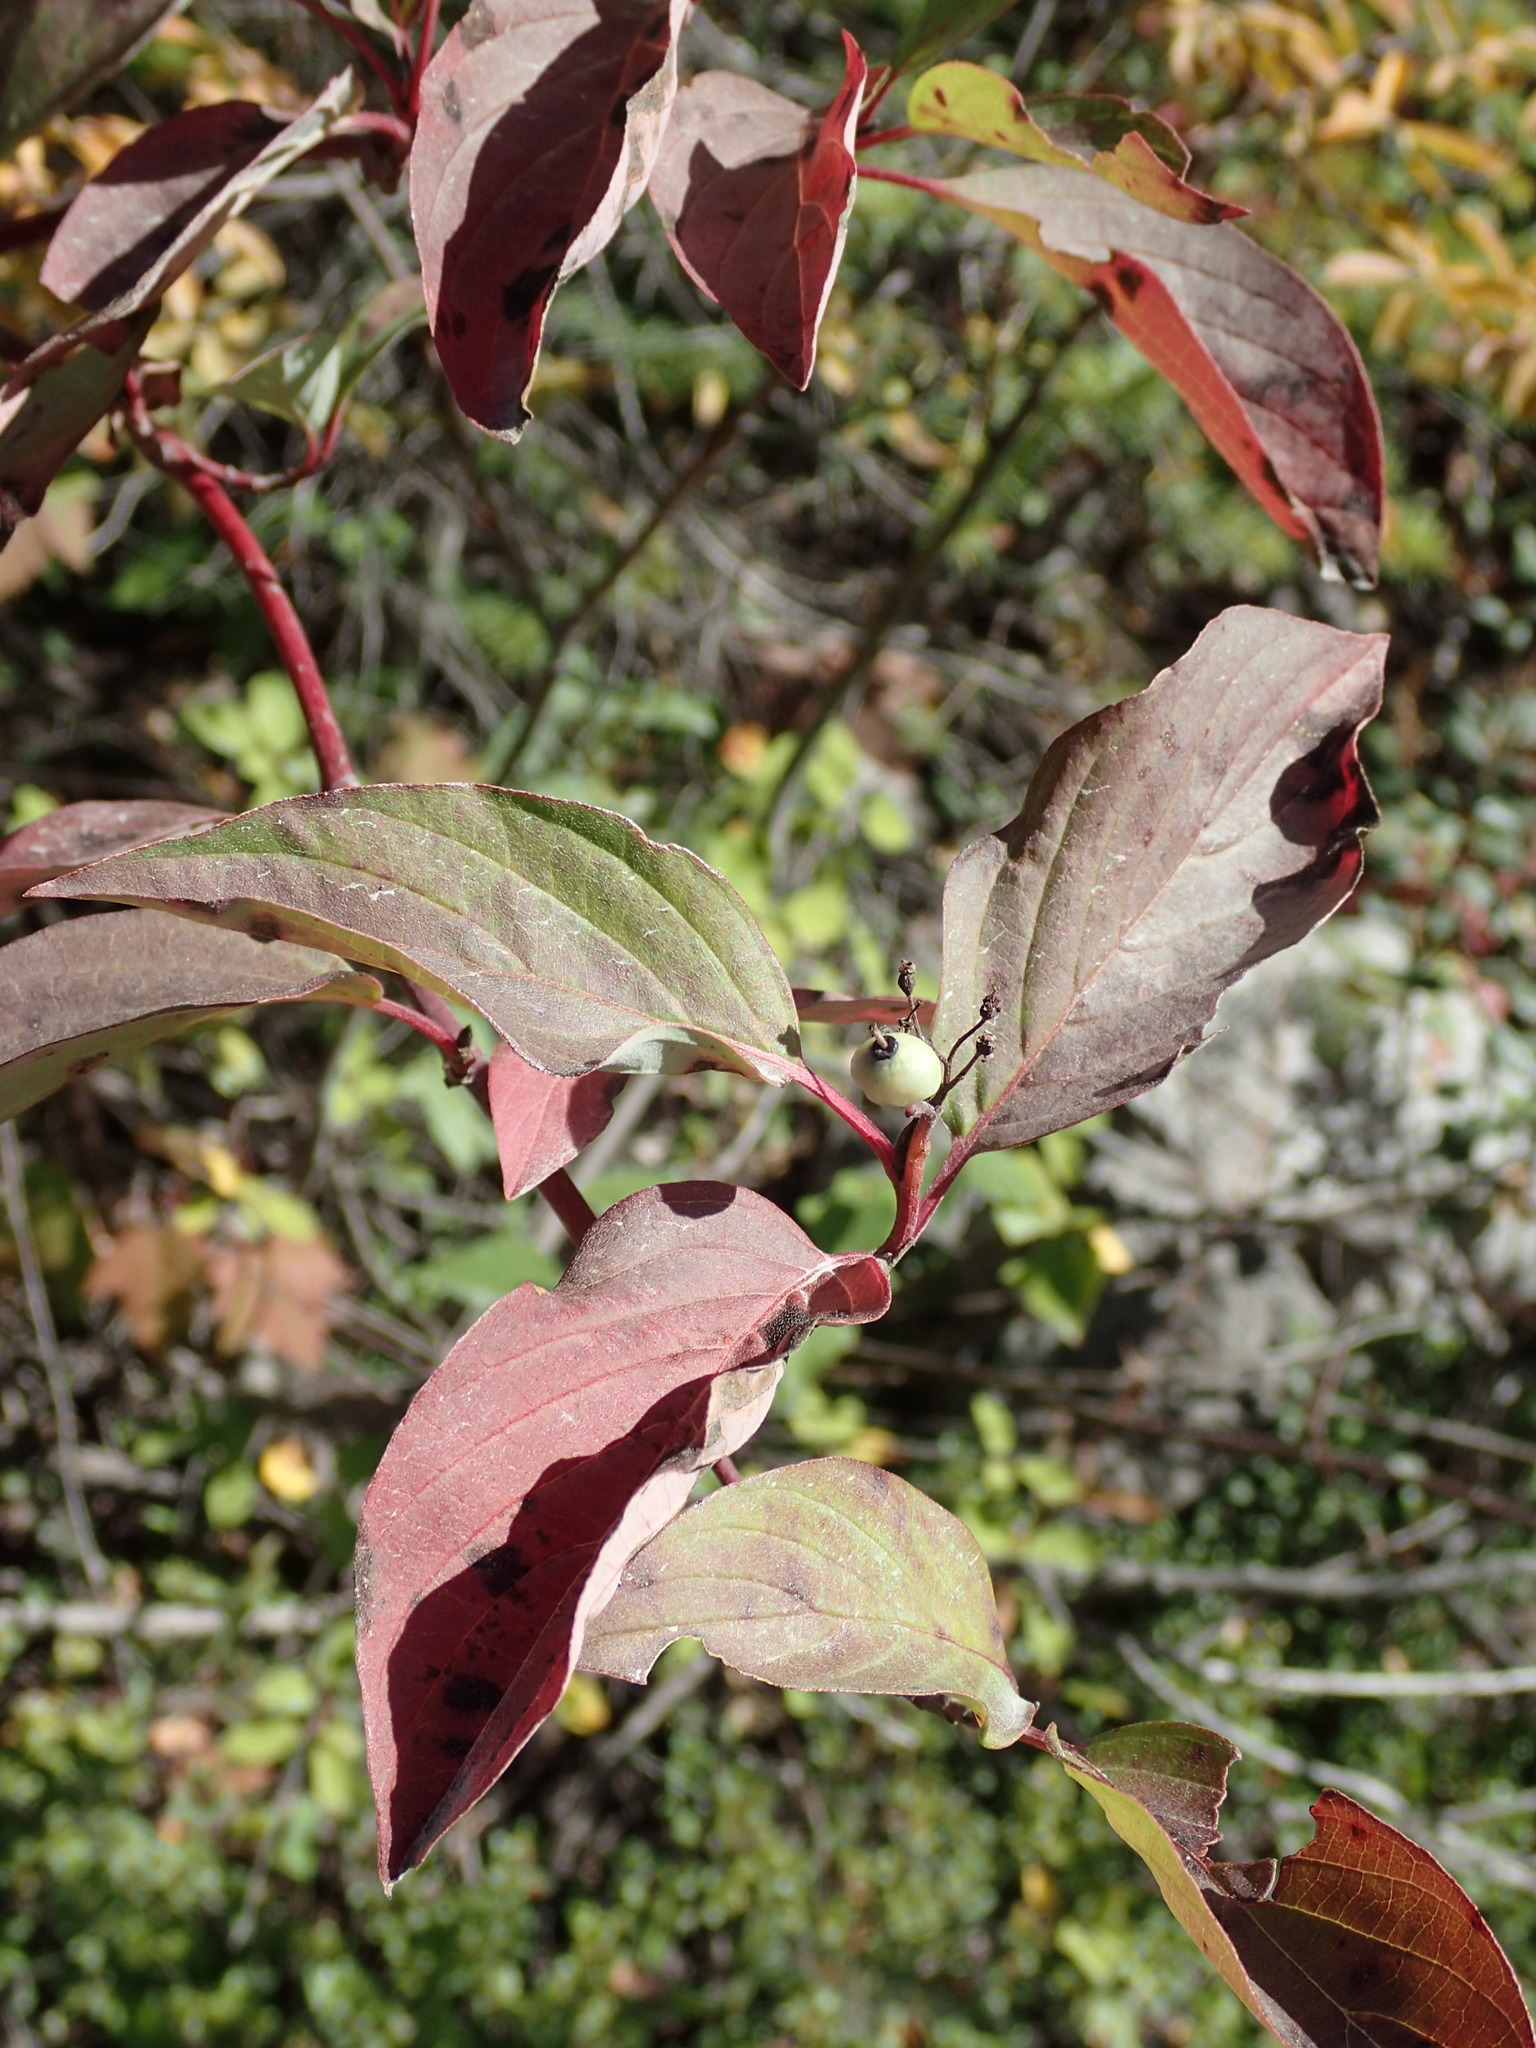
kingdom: Plantae
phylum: Tracheophyta
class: Magnoliopsida
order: Cornales
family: Cornaceae
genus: Cornus
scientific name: Cornus sericea
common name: Red-osier dogwood
